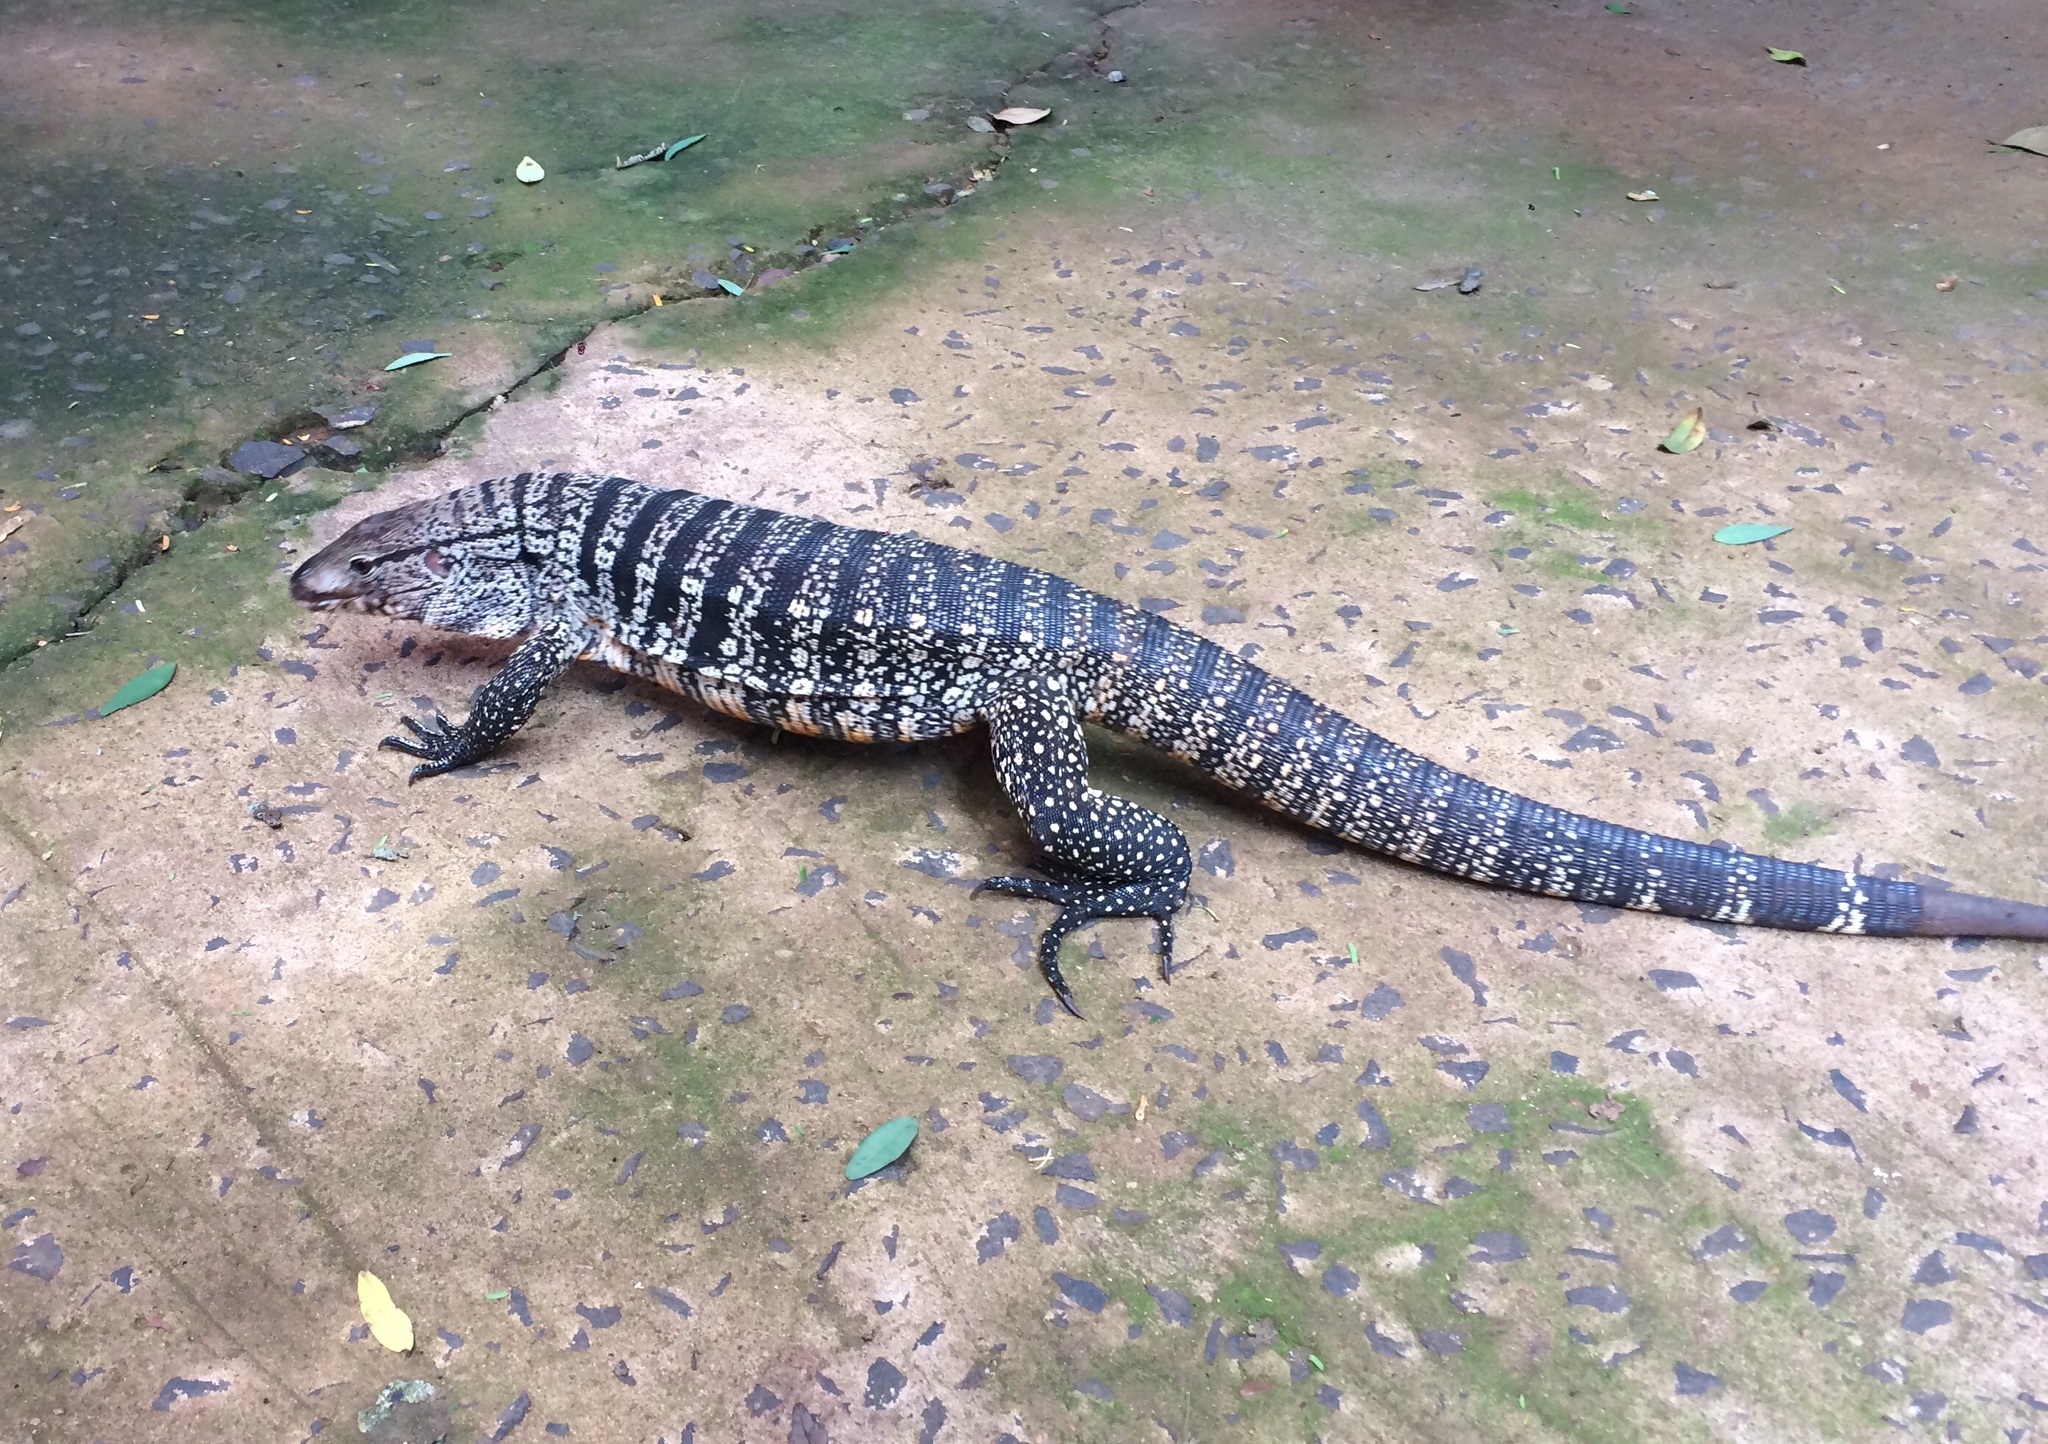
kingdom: Animalia
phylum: Chordata
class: Squamata
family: Teiidae
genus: Salvator
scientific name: Salvator merianae
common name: Argentine black and white tegu
